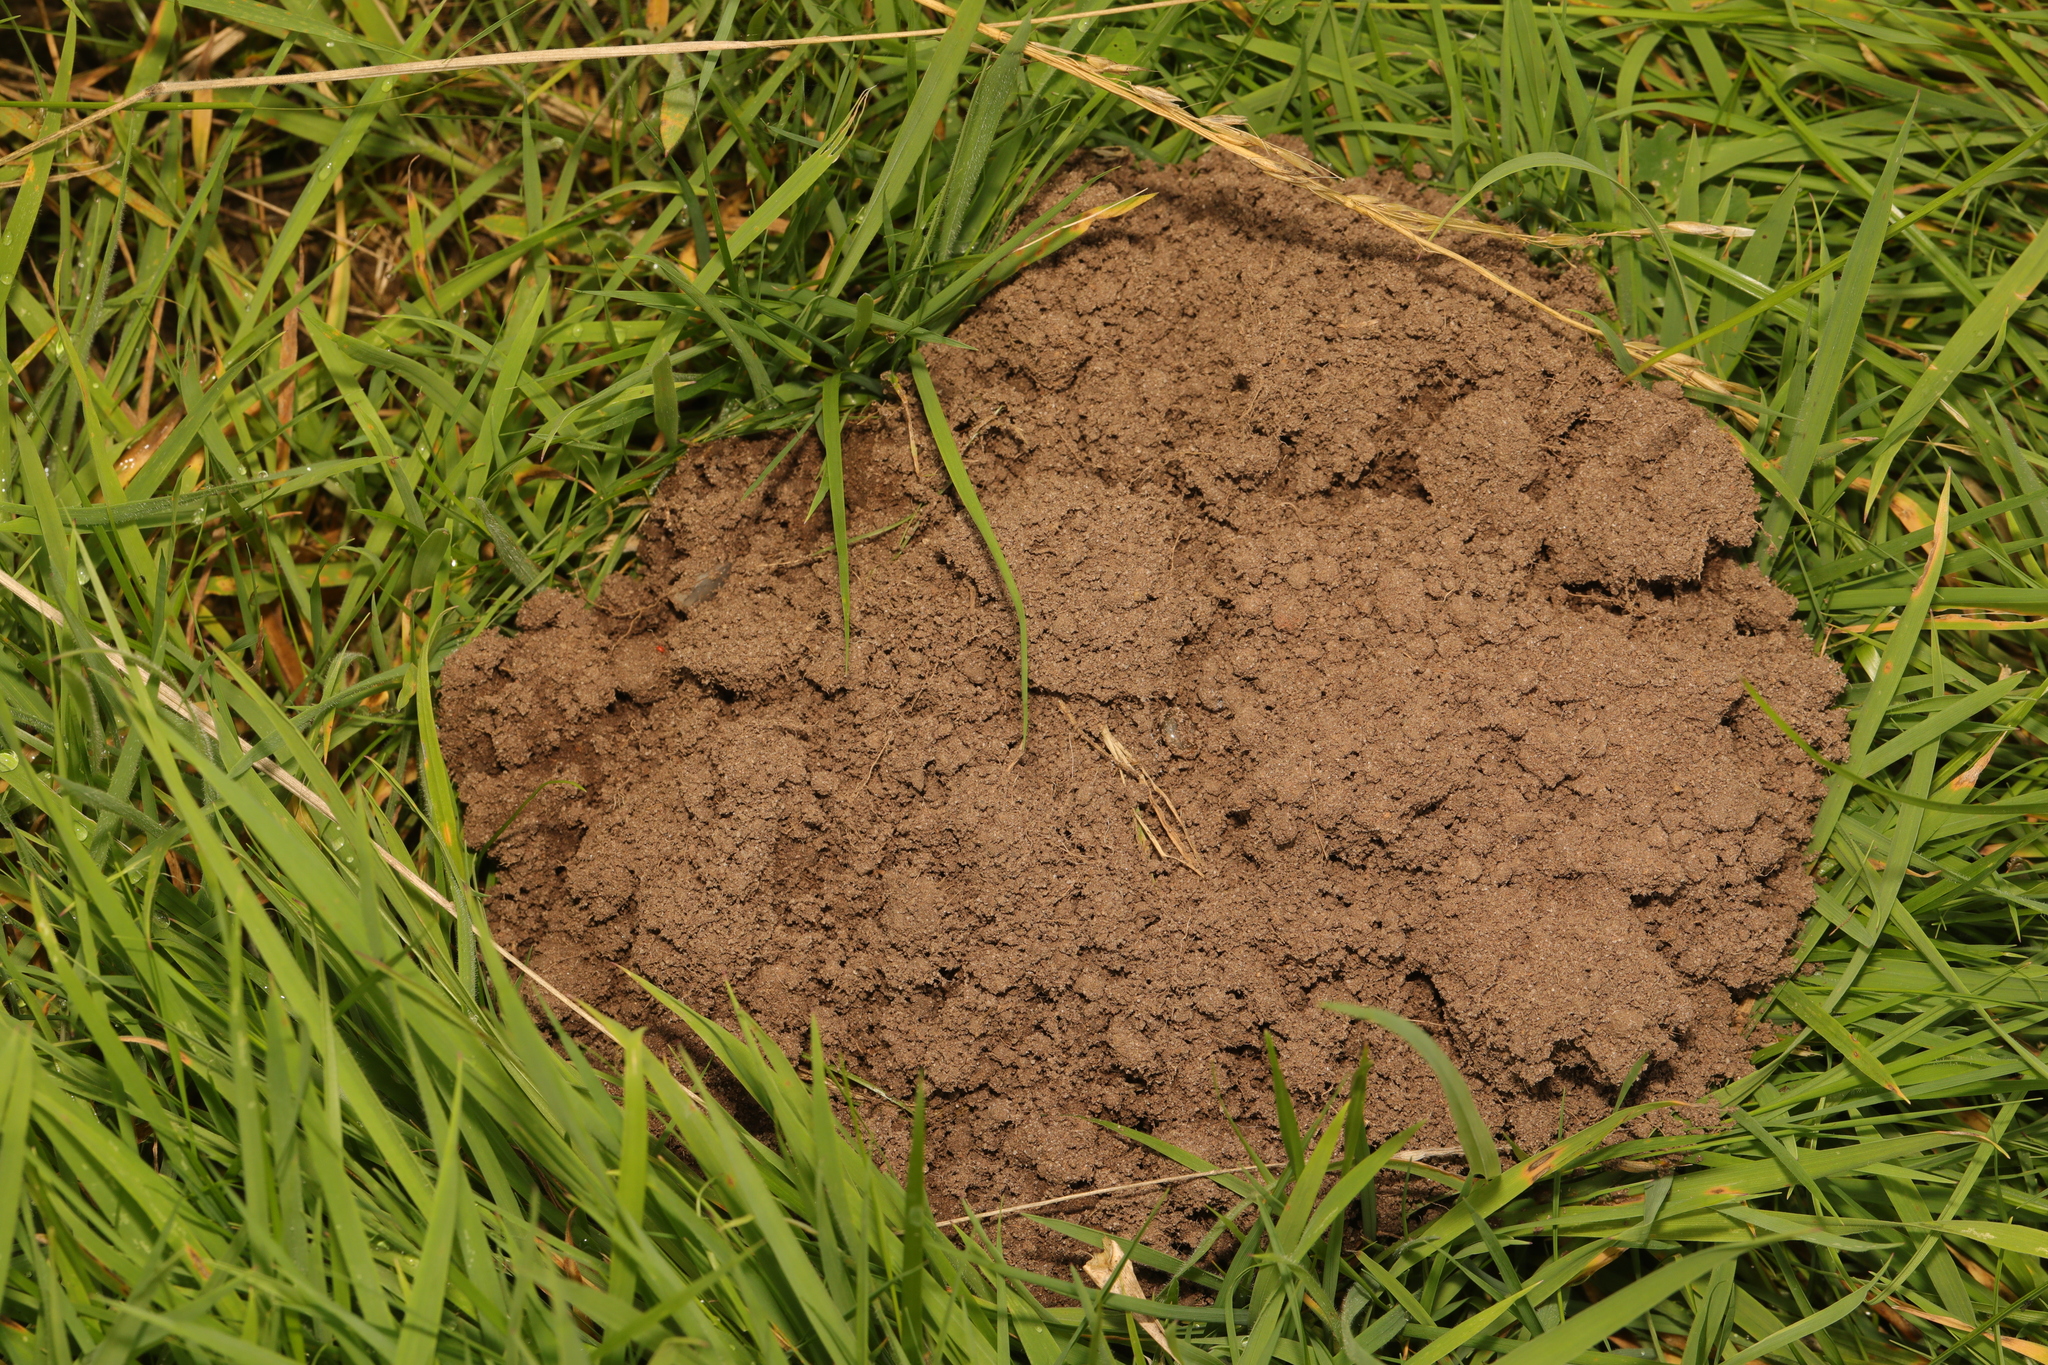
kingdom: Animalia
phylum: Chordata
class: Mammalia
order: Soricomorpha
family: Talpidae
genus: Talpa
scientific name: Talpa europaea
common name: European mole
